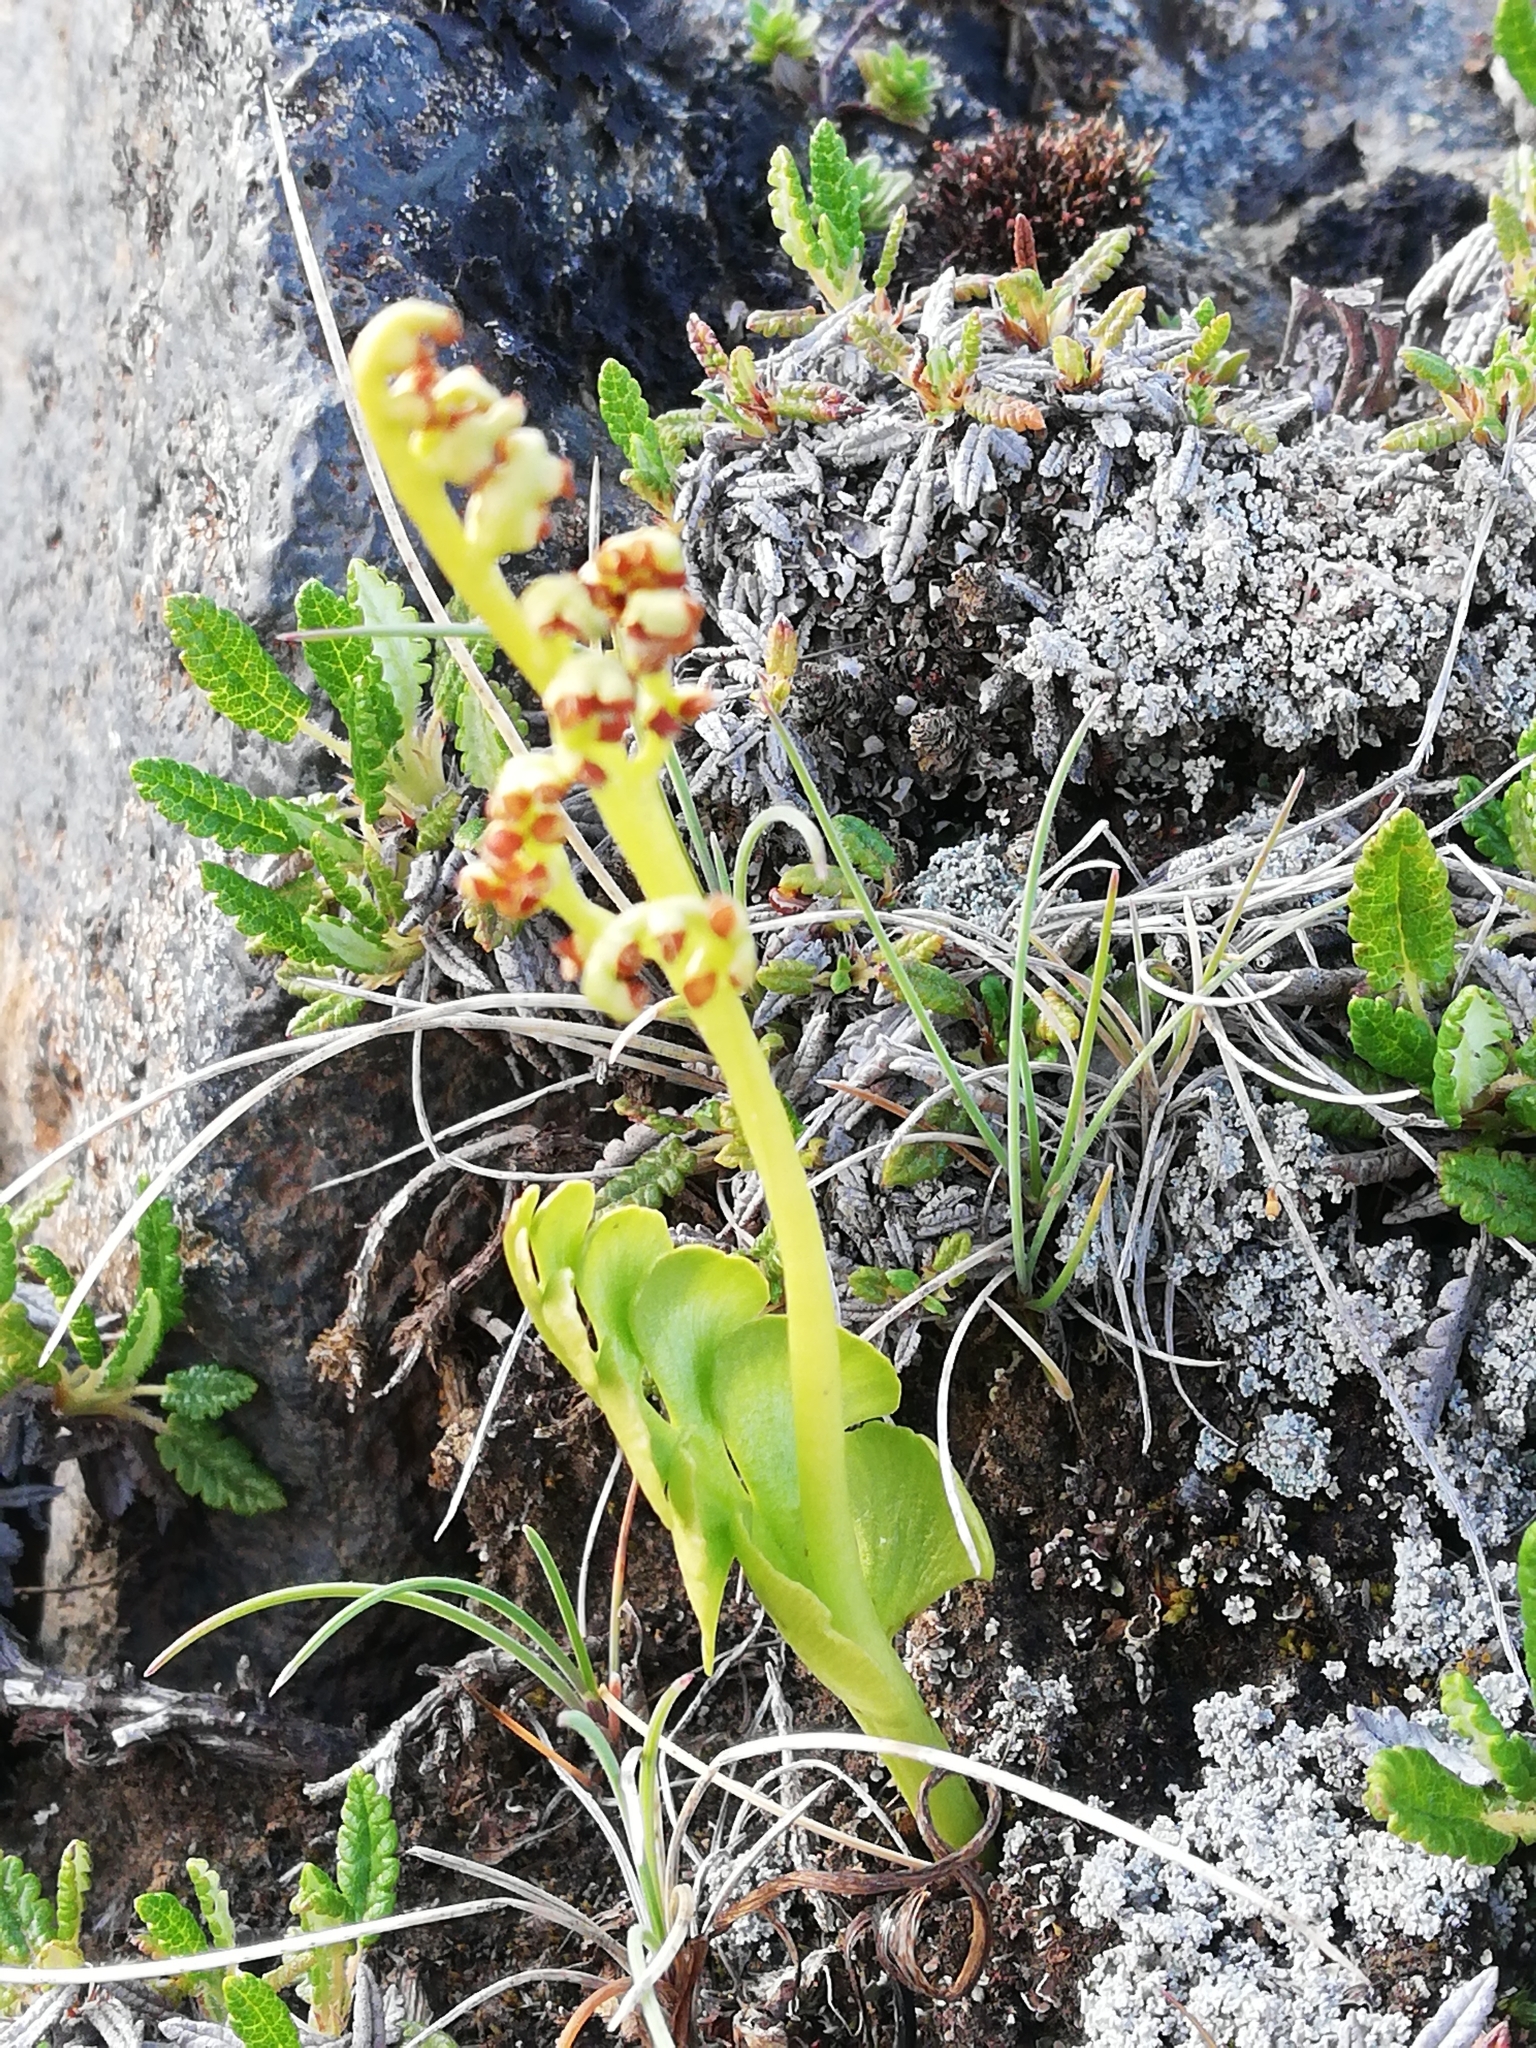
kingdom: Plantae
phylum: Tracheophyta
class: Polypodiopsida
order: Ophioglossales
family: Ophioglossaceae
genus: Botrychium
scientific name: Botrychium lunaria
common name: Moonwort
